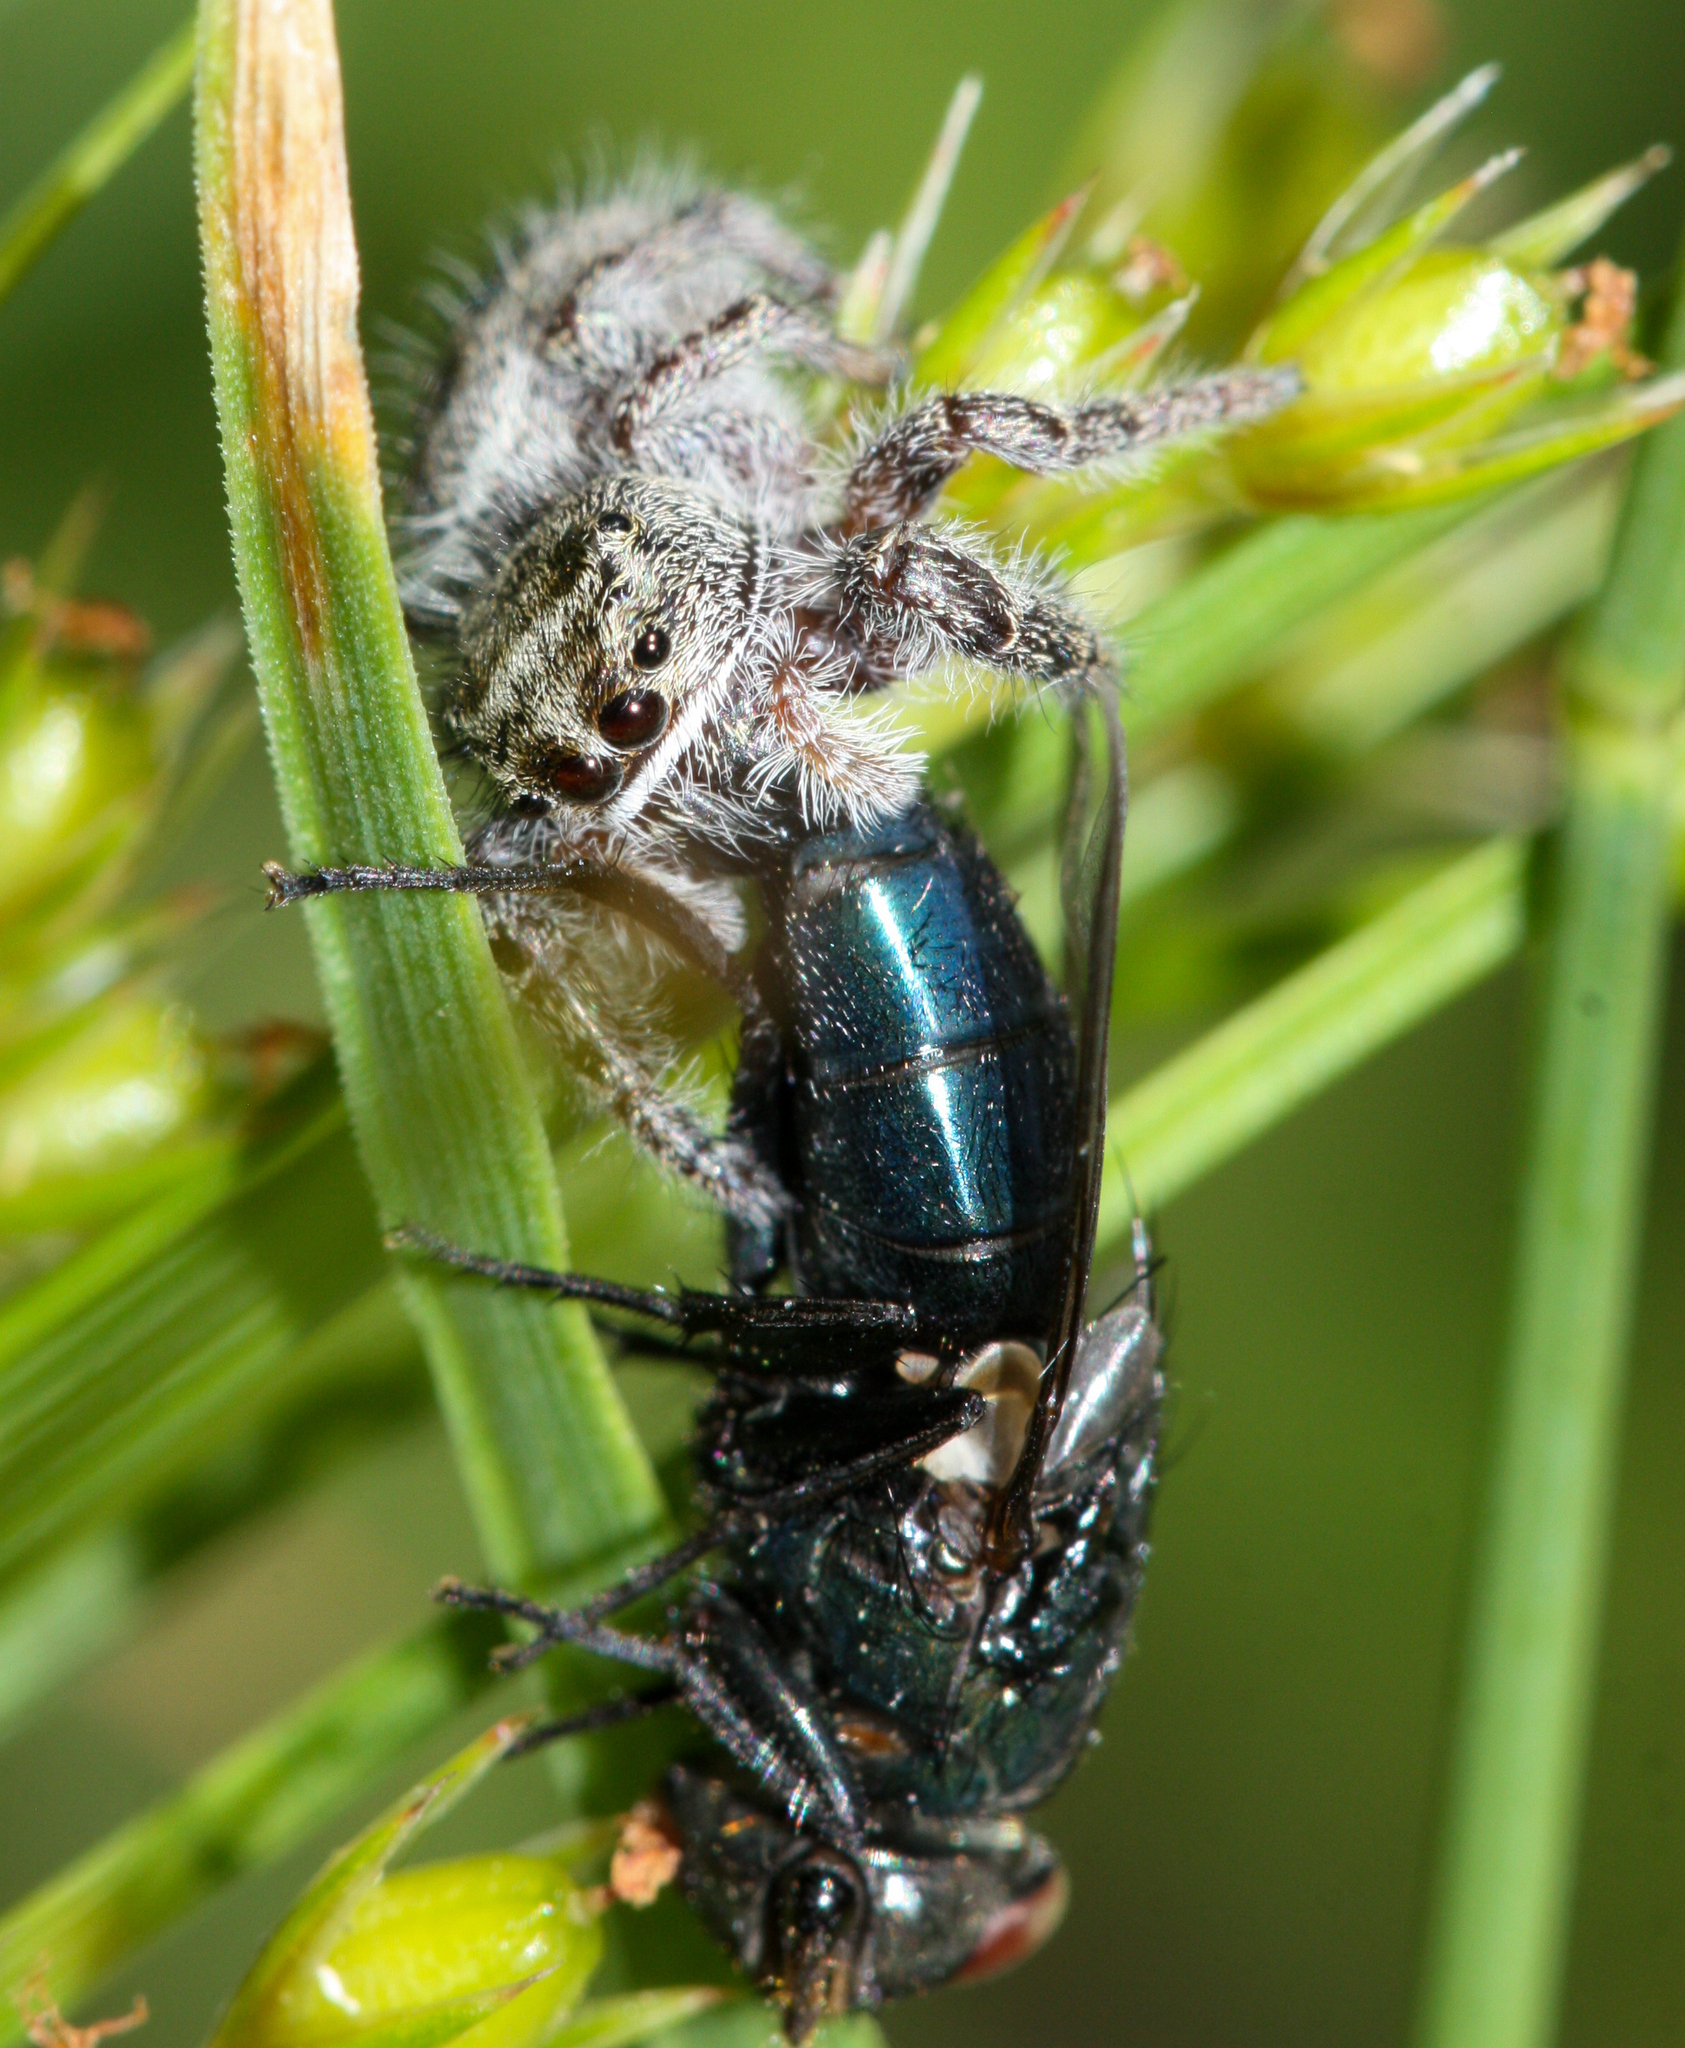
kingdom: Animalia
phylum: Arthropoda
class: Arachnida
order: Araneae
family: Salticidae
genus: Phidippus
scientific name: Phidippus purpuratus
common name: Marbled purple jumping spider
